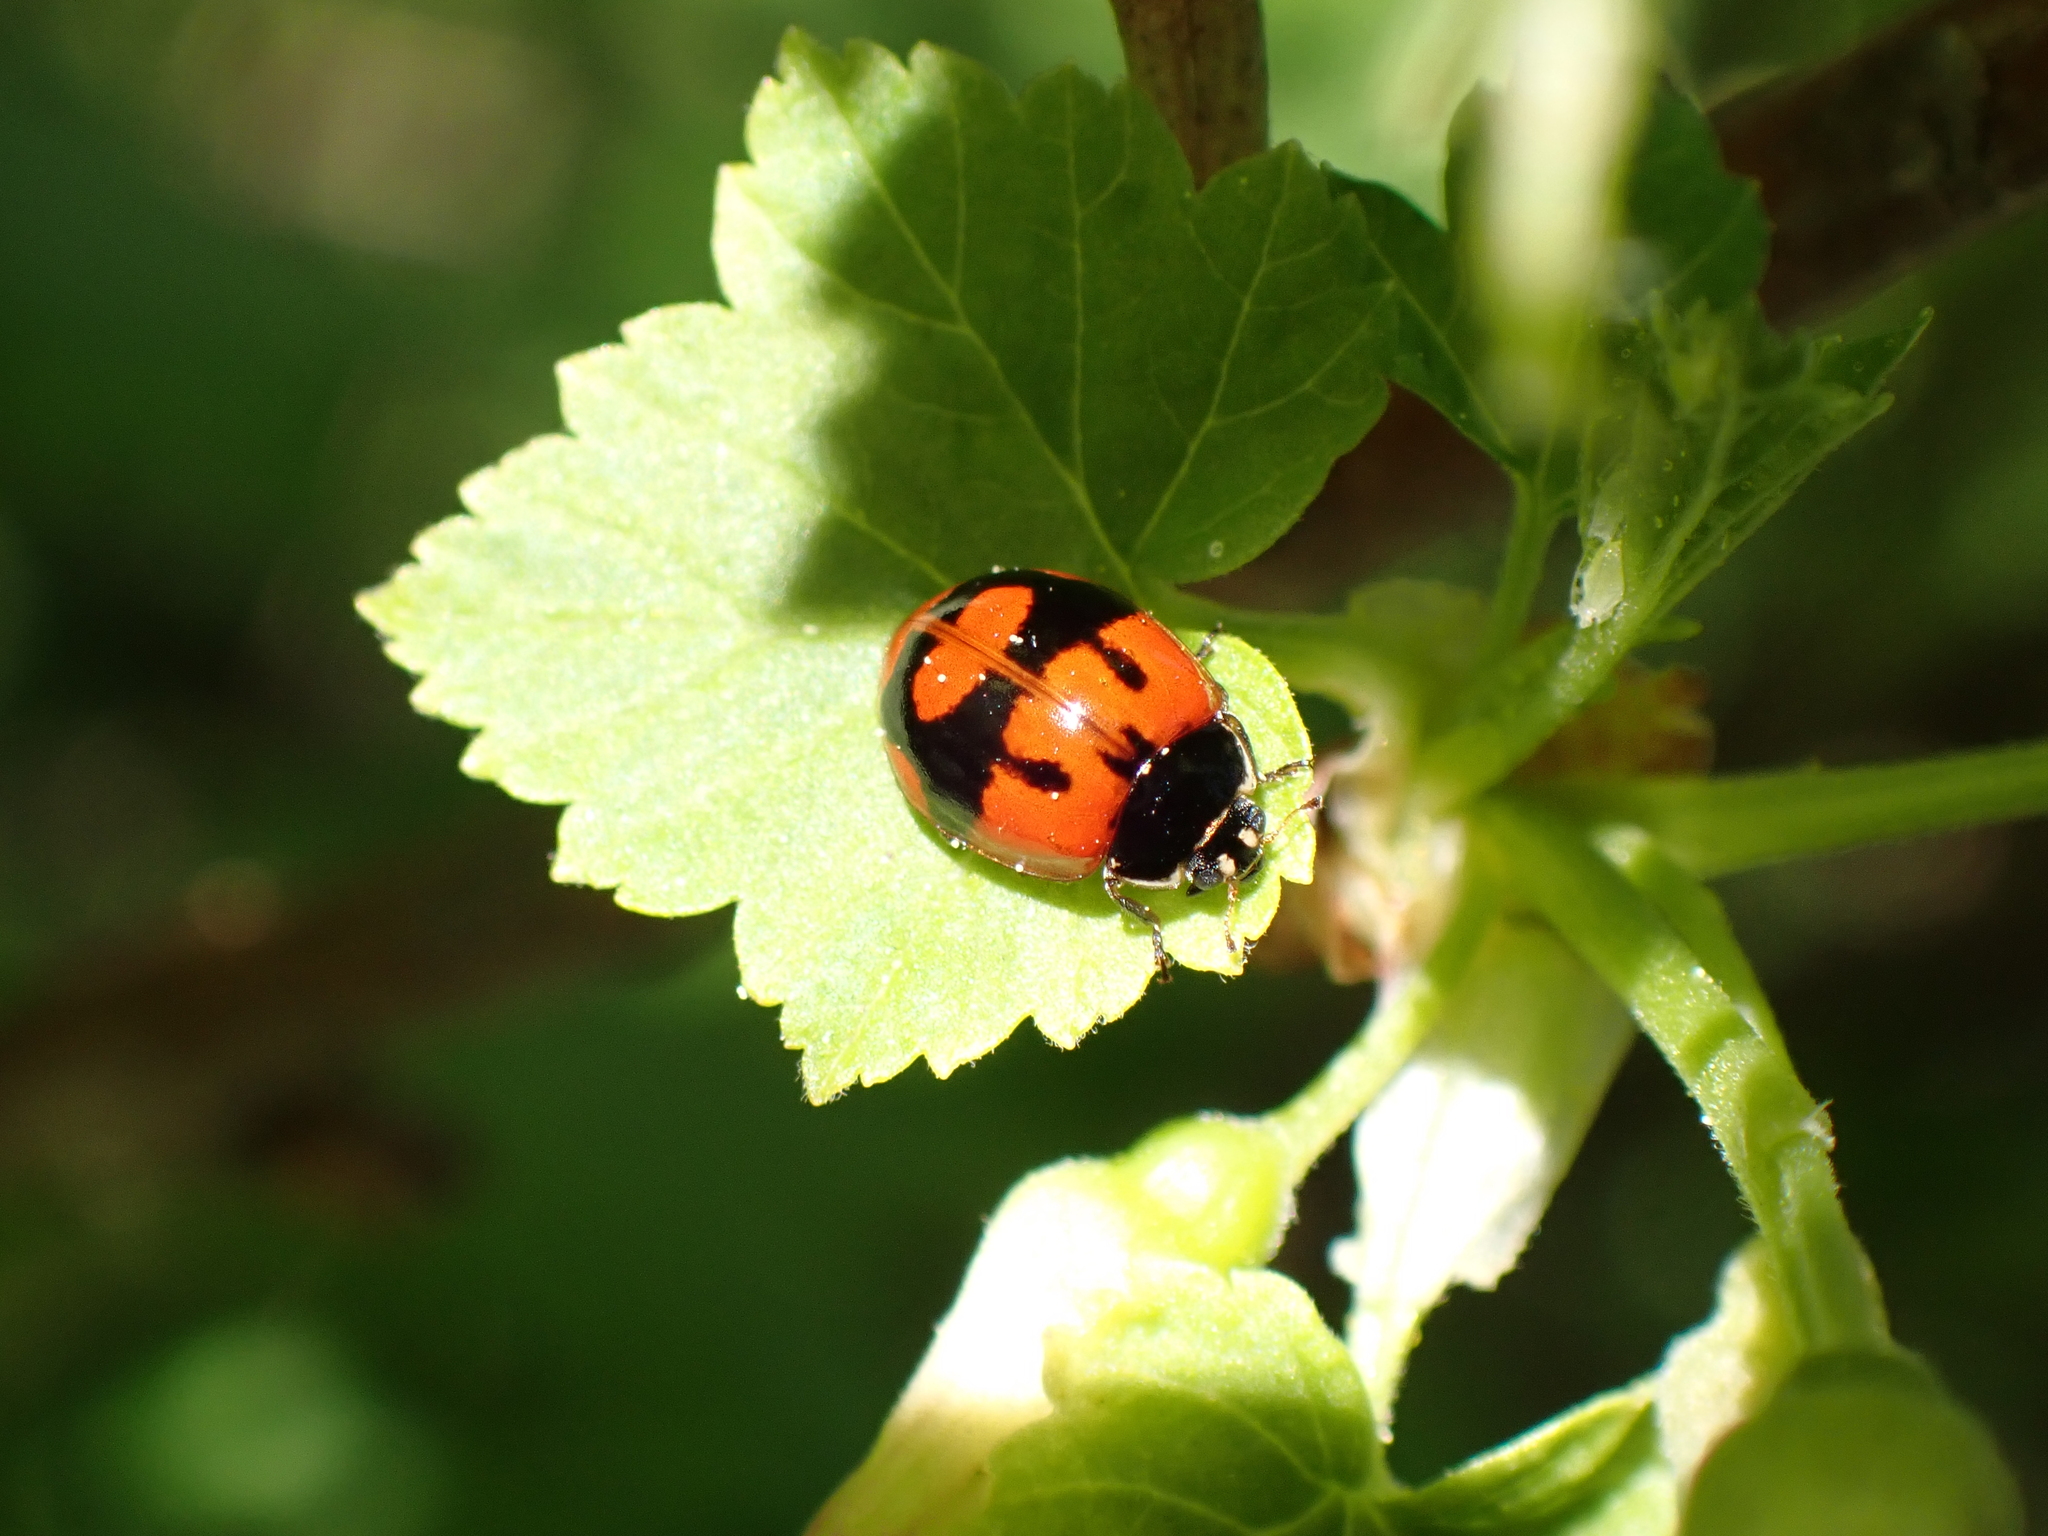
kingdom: Animalia
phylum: Arthropoda
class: Insecta
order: Coleoptera
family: Coccinellidae
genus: Adalia
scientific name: Adalia bipunctata
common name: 2-spot ladybird
